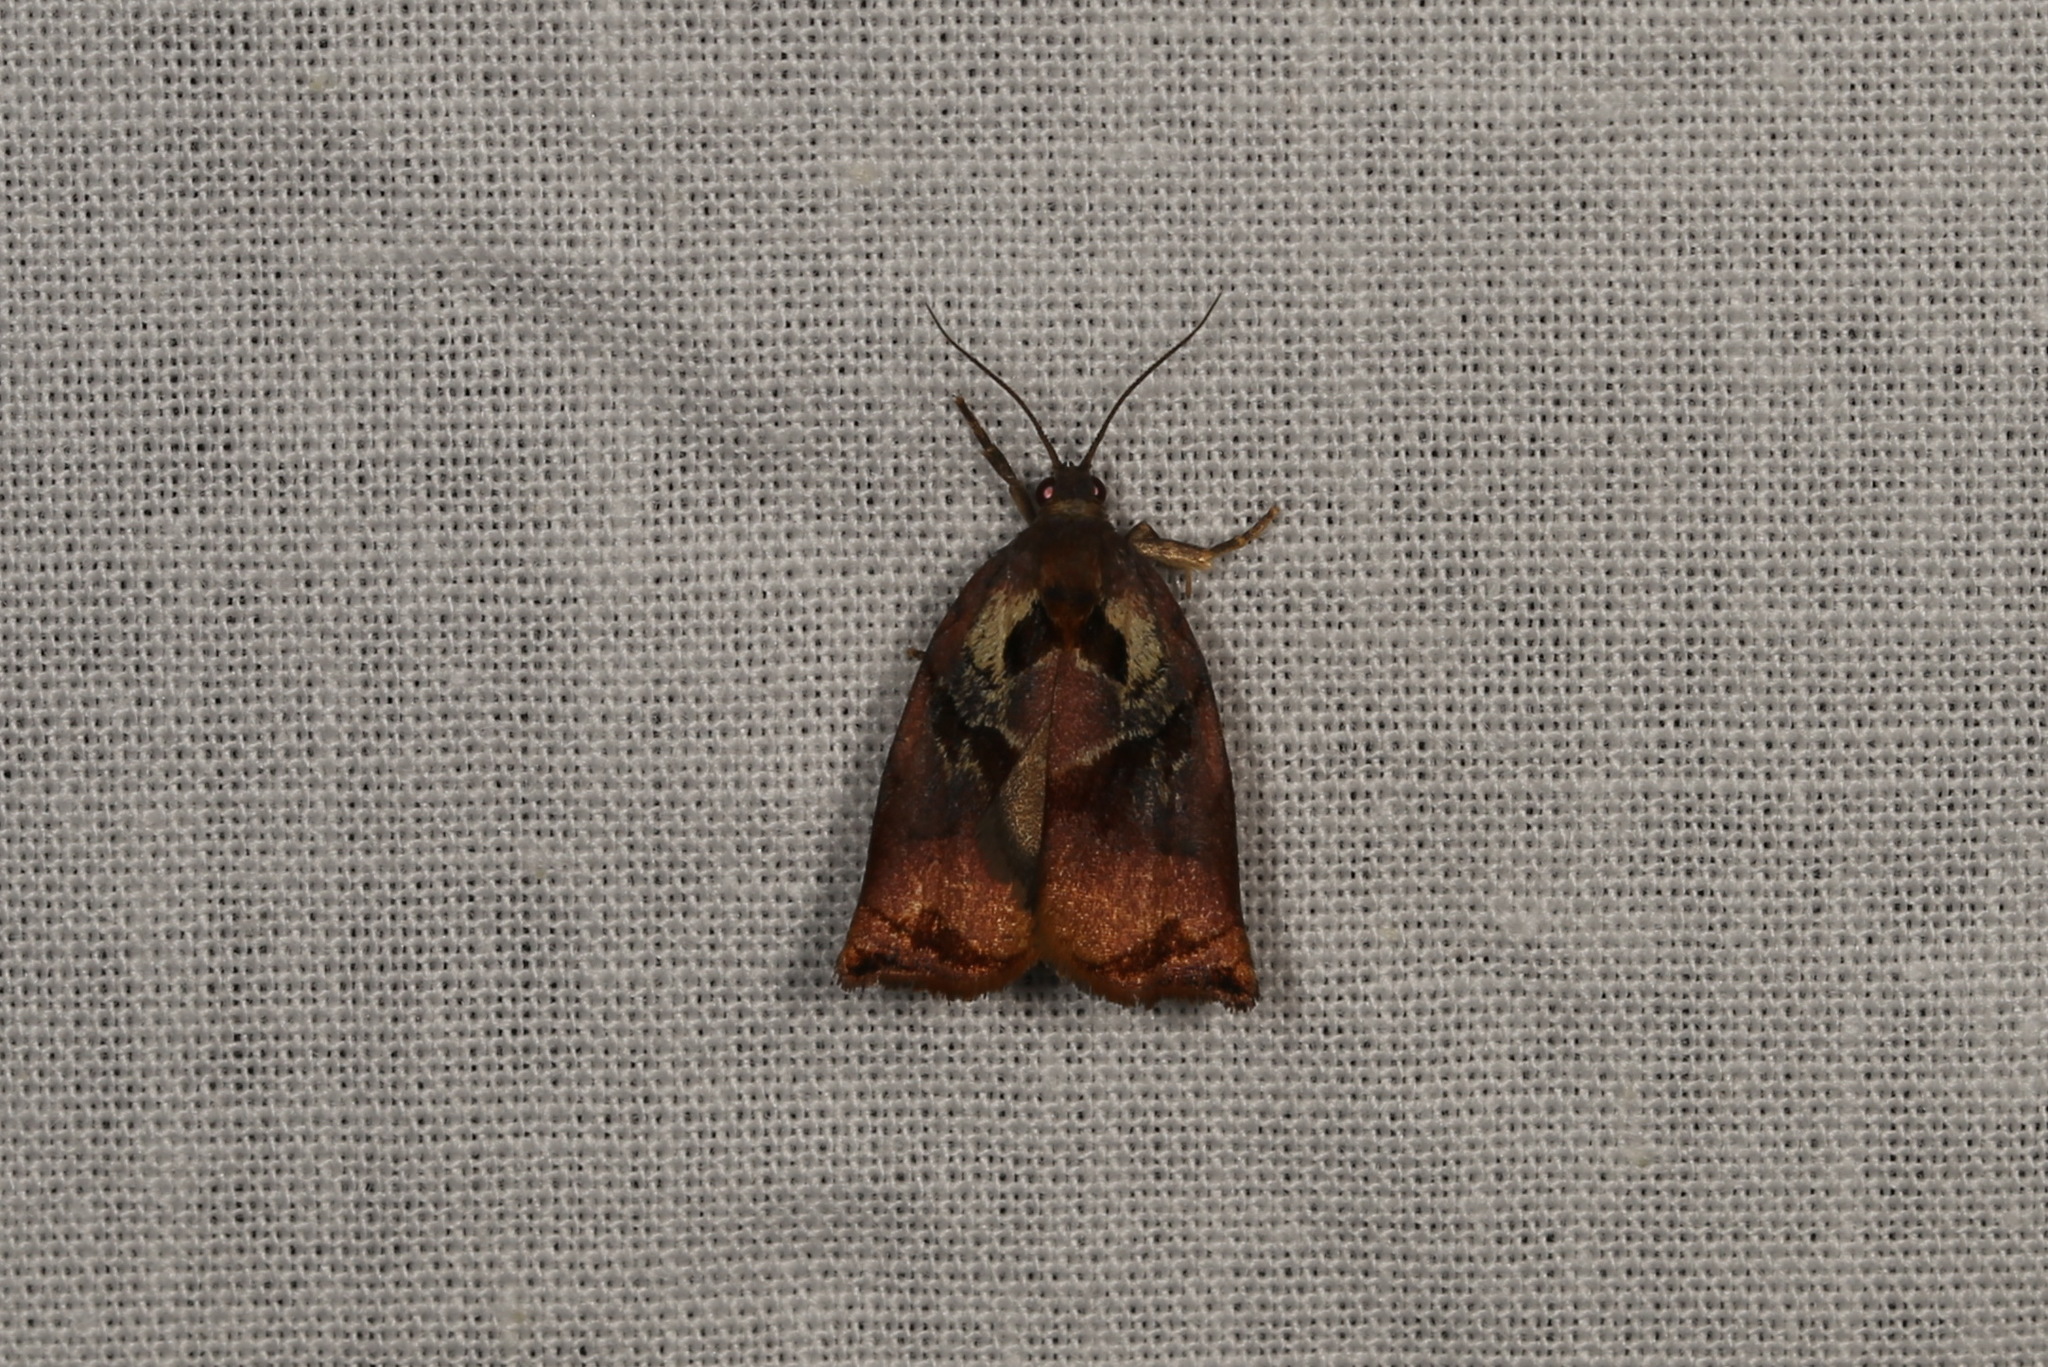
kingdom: Animalia
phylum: Arthropoda
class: Insecta
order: Lepidoptera
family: Tortricidae
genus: Archips
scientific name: Archips podana
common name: Large fruit-tree tortrix
